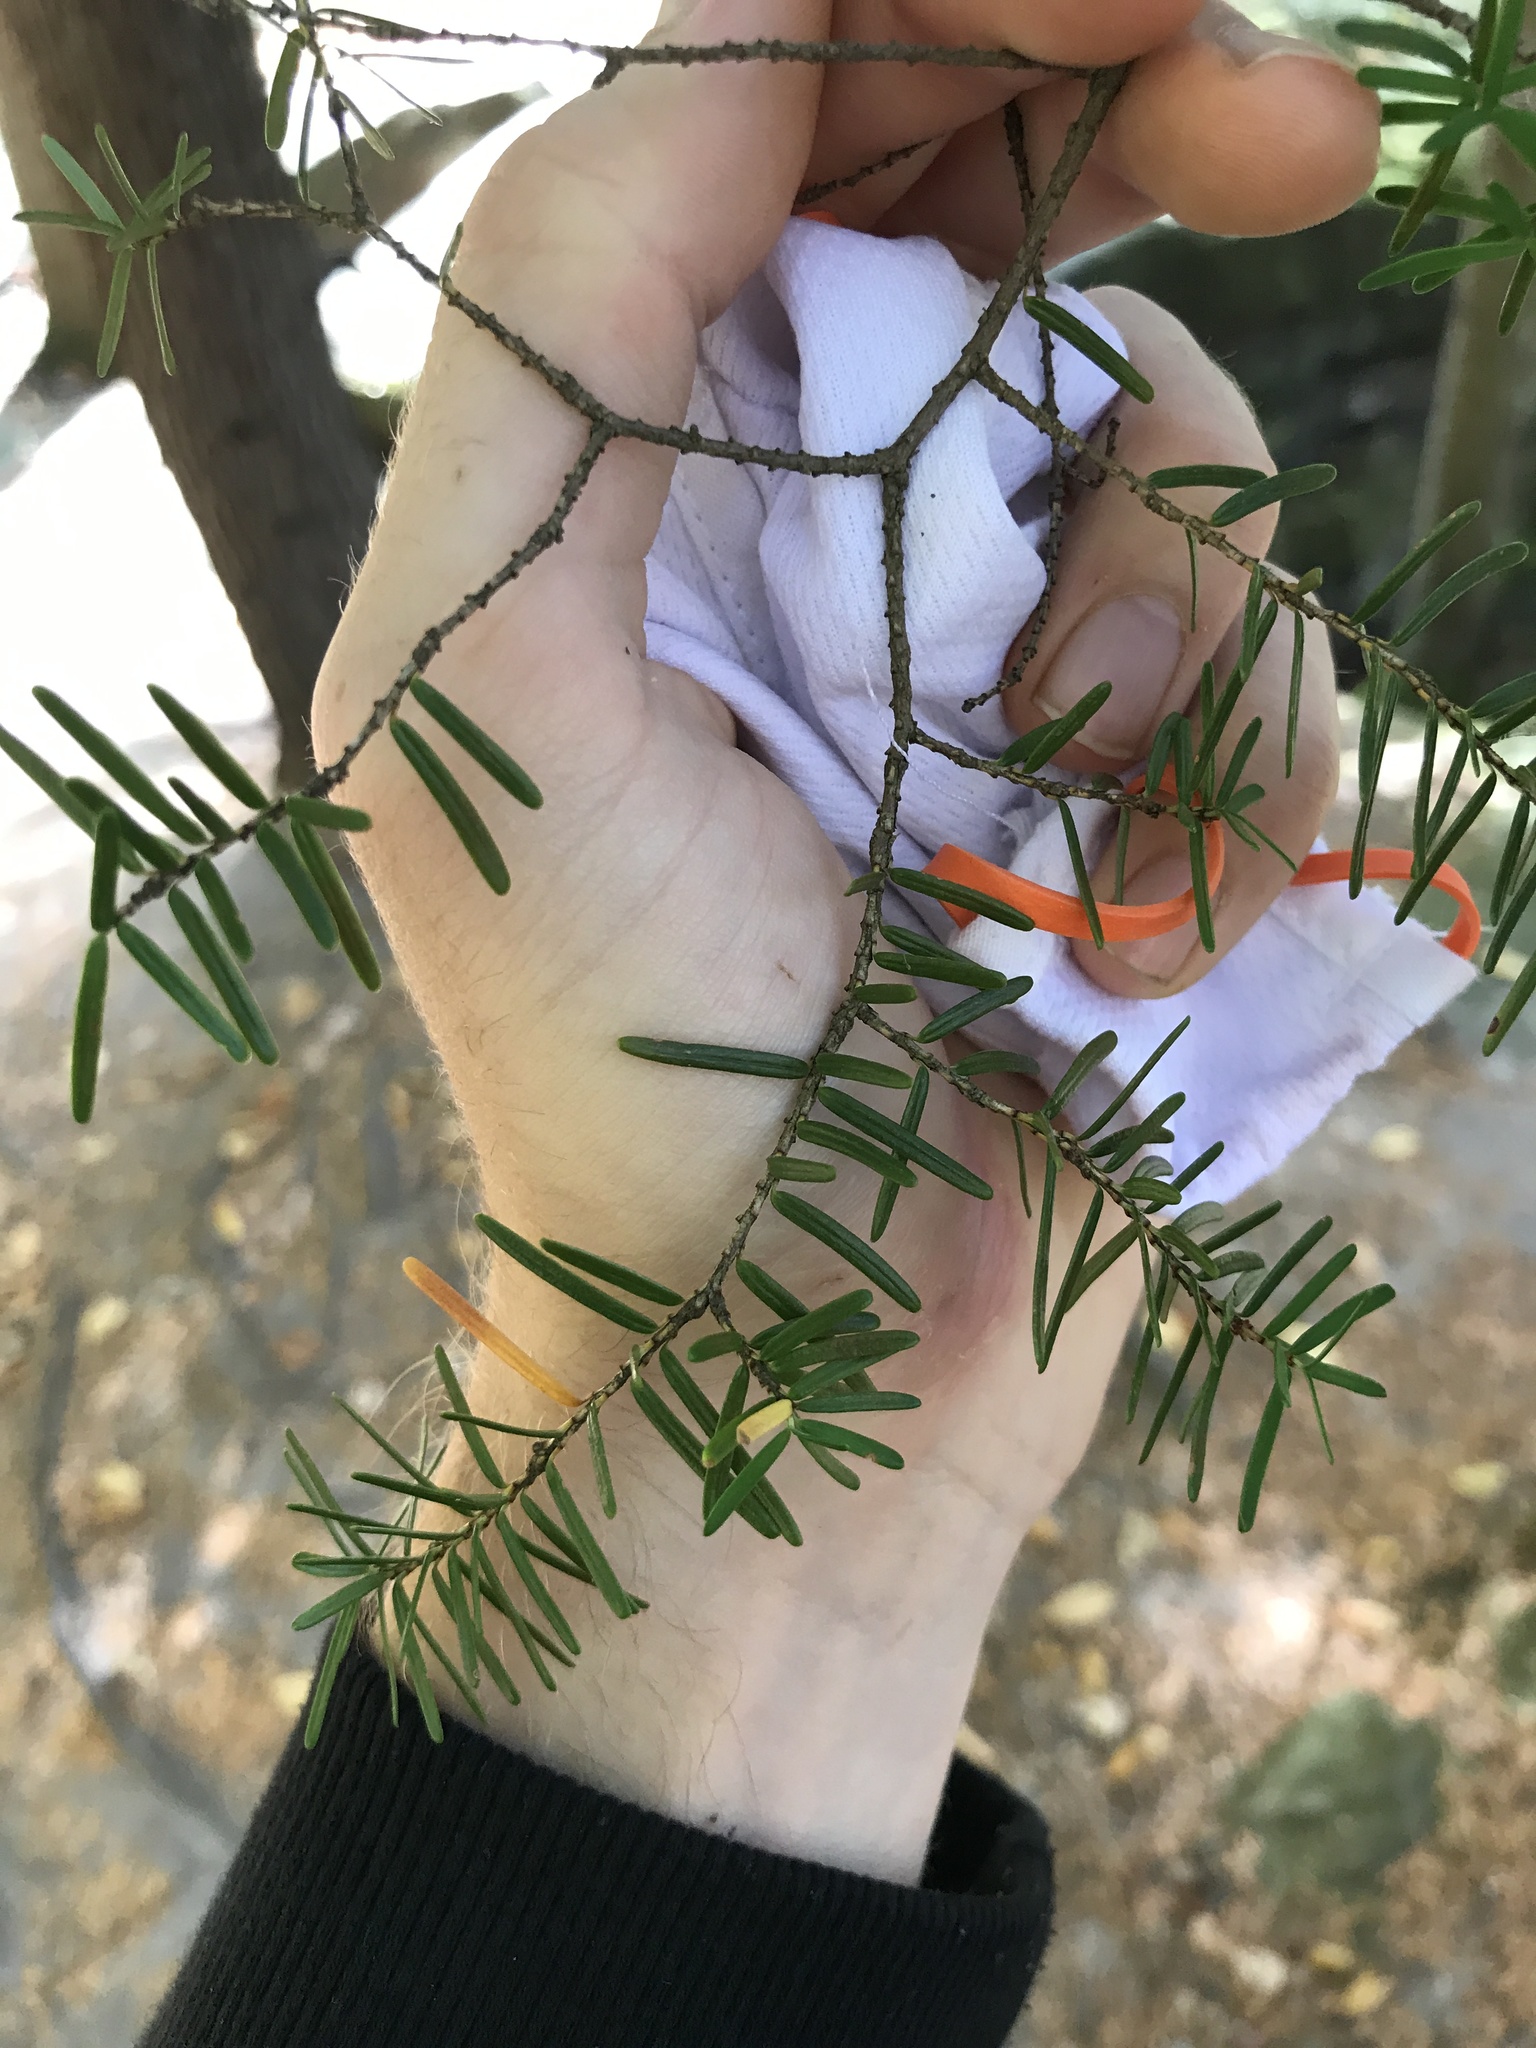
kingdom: Plantae
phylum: Tracheophyta
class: Pinopsida
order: Pinales
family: Pinaceae
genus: Tsuga
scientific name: Tsuga caroliniana
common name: Carolina hemlock
